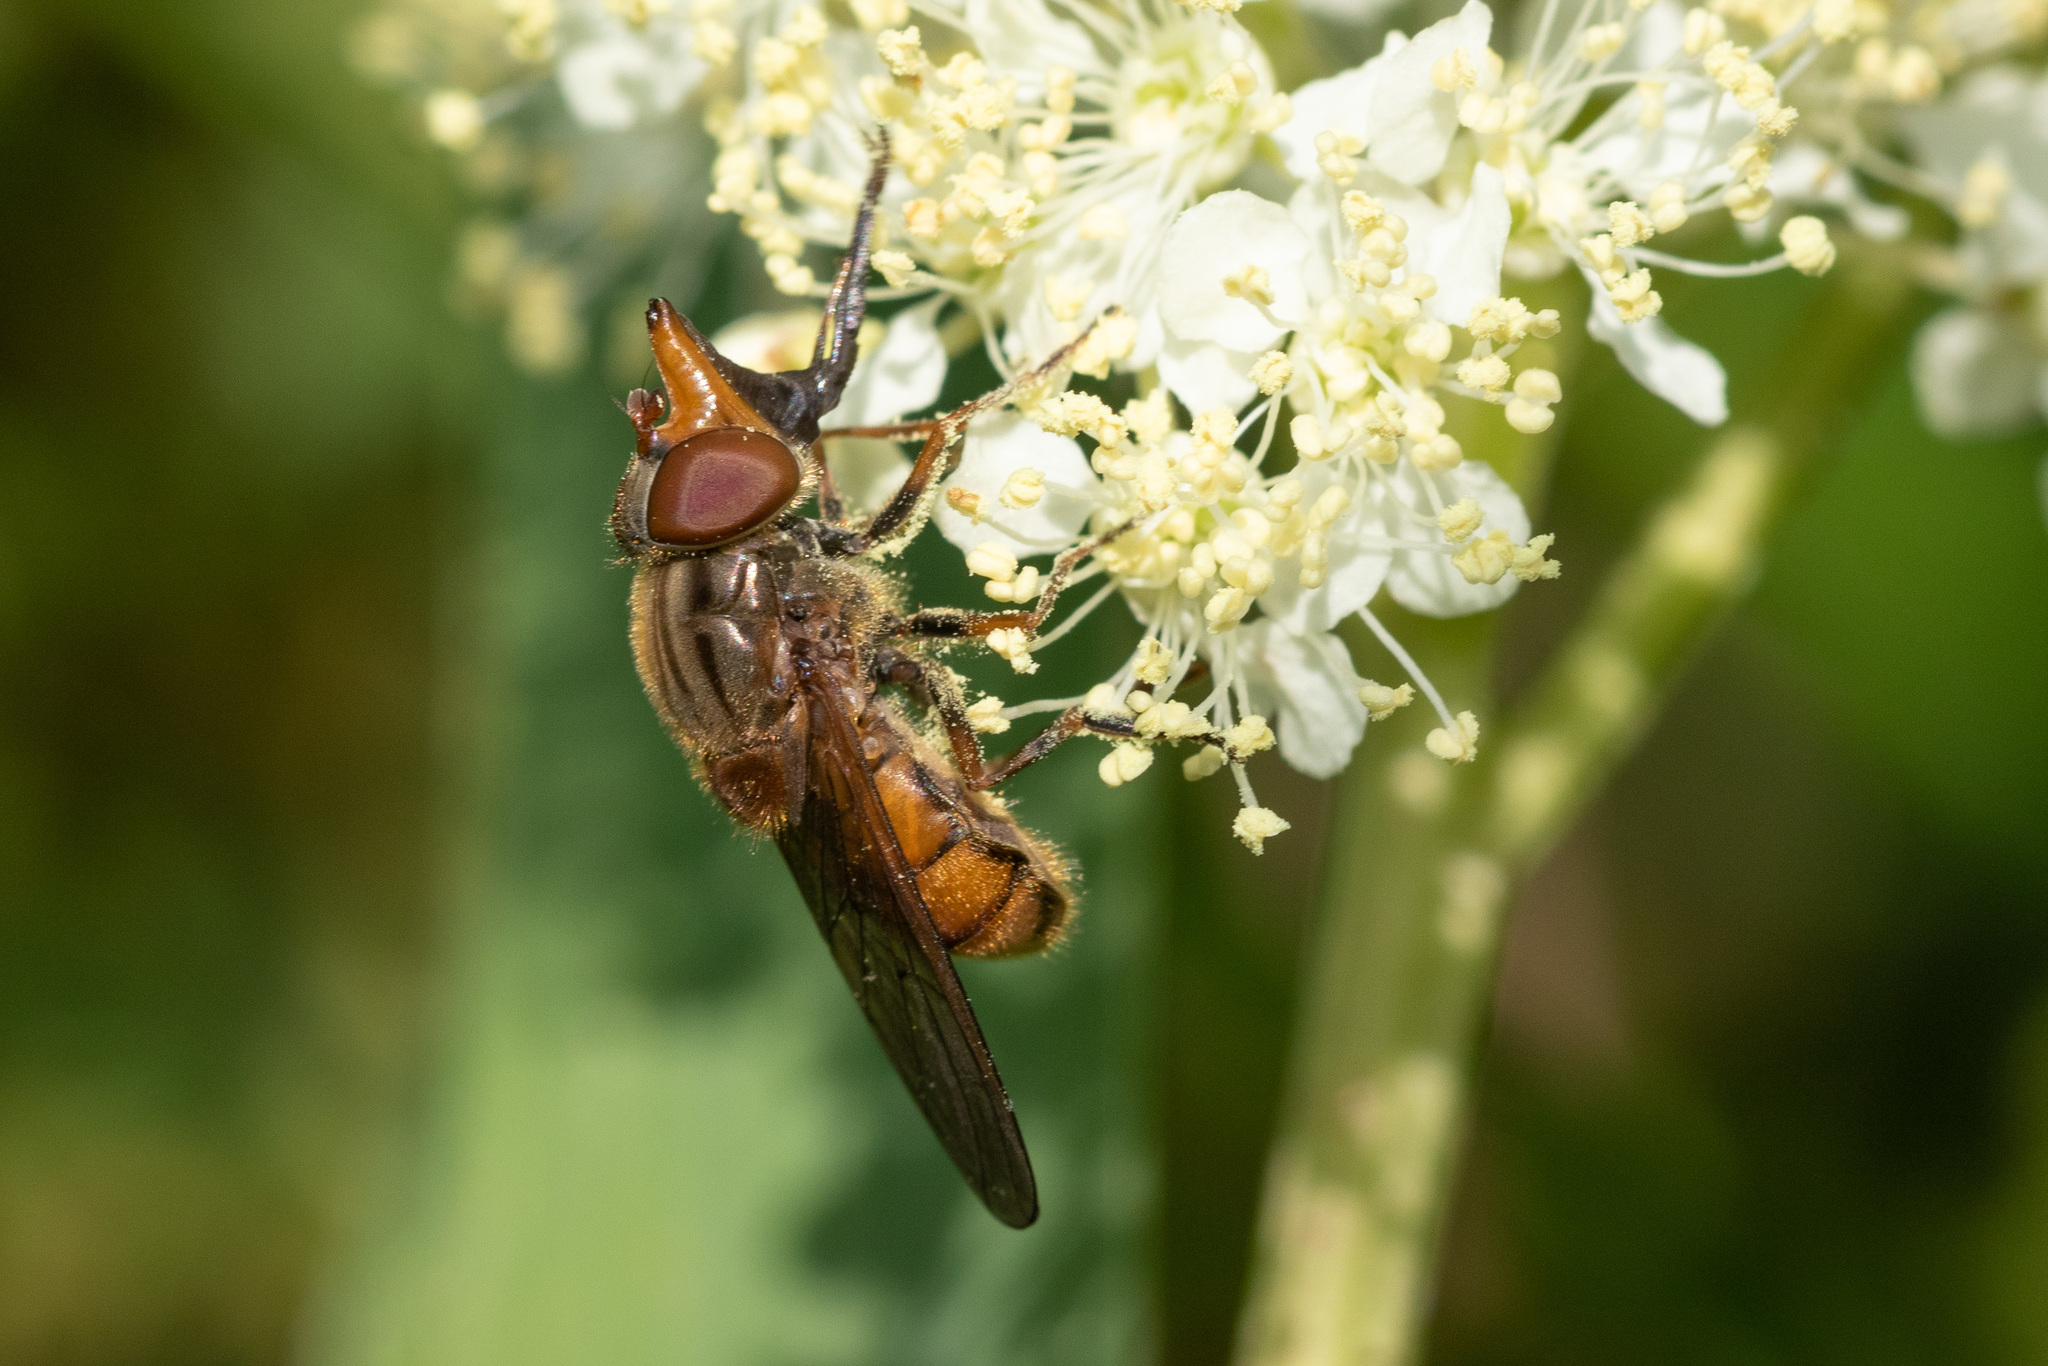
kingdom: Animalia
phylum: Arthropoda
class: Insecta
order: Diptera
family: Syrphidae
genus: Rhingia
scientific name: Rhingia campestris
